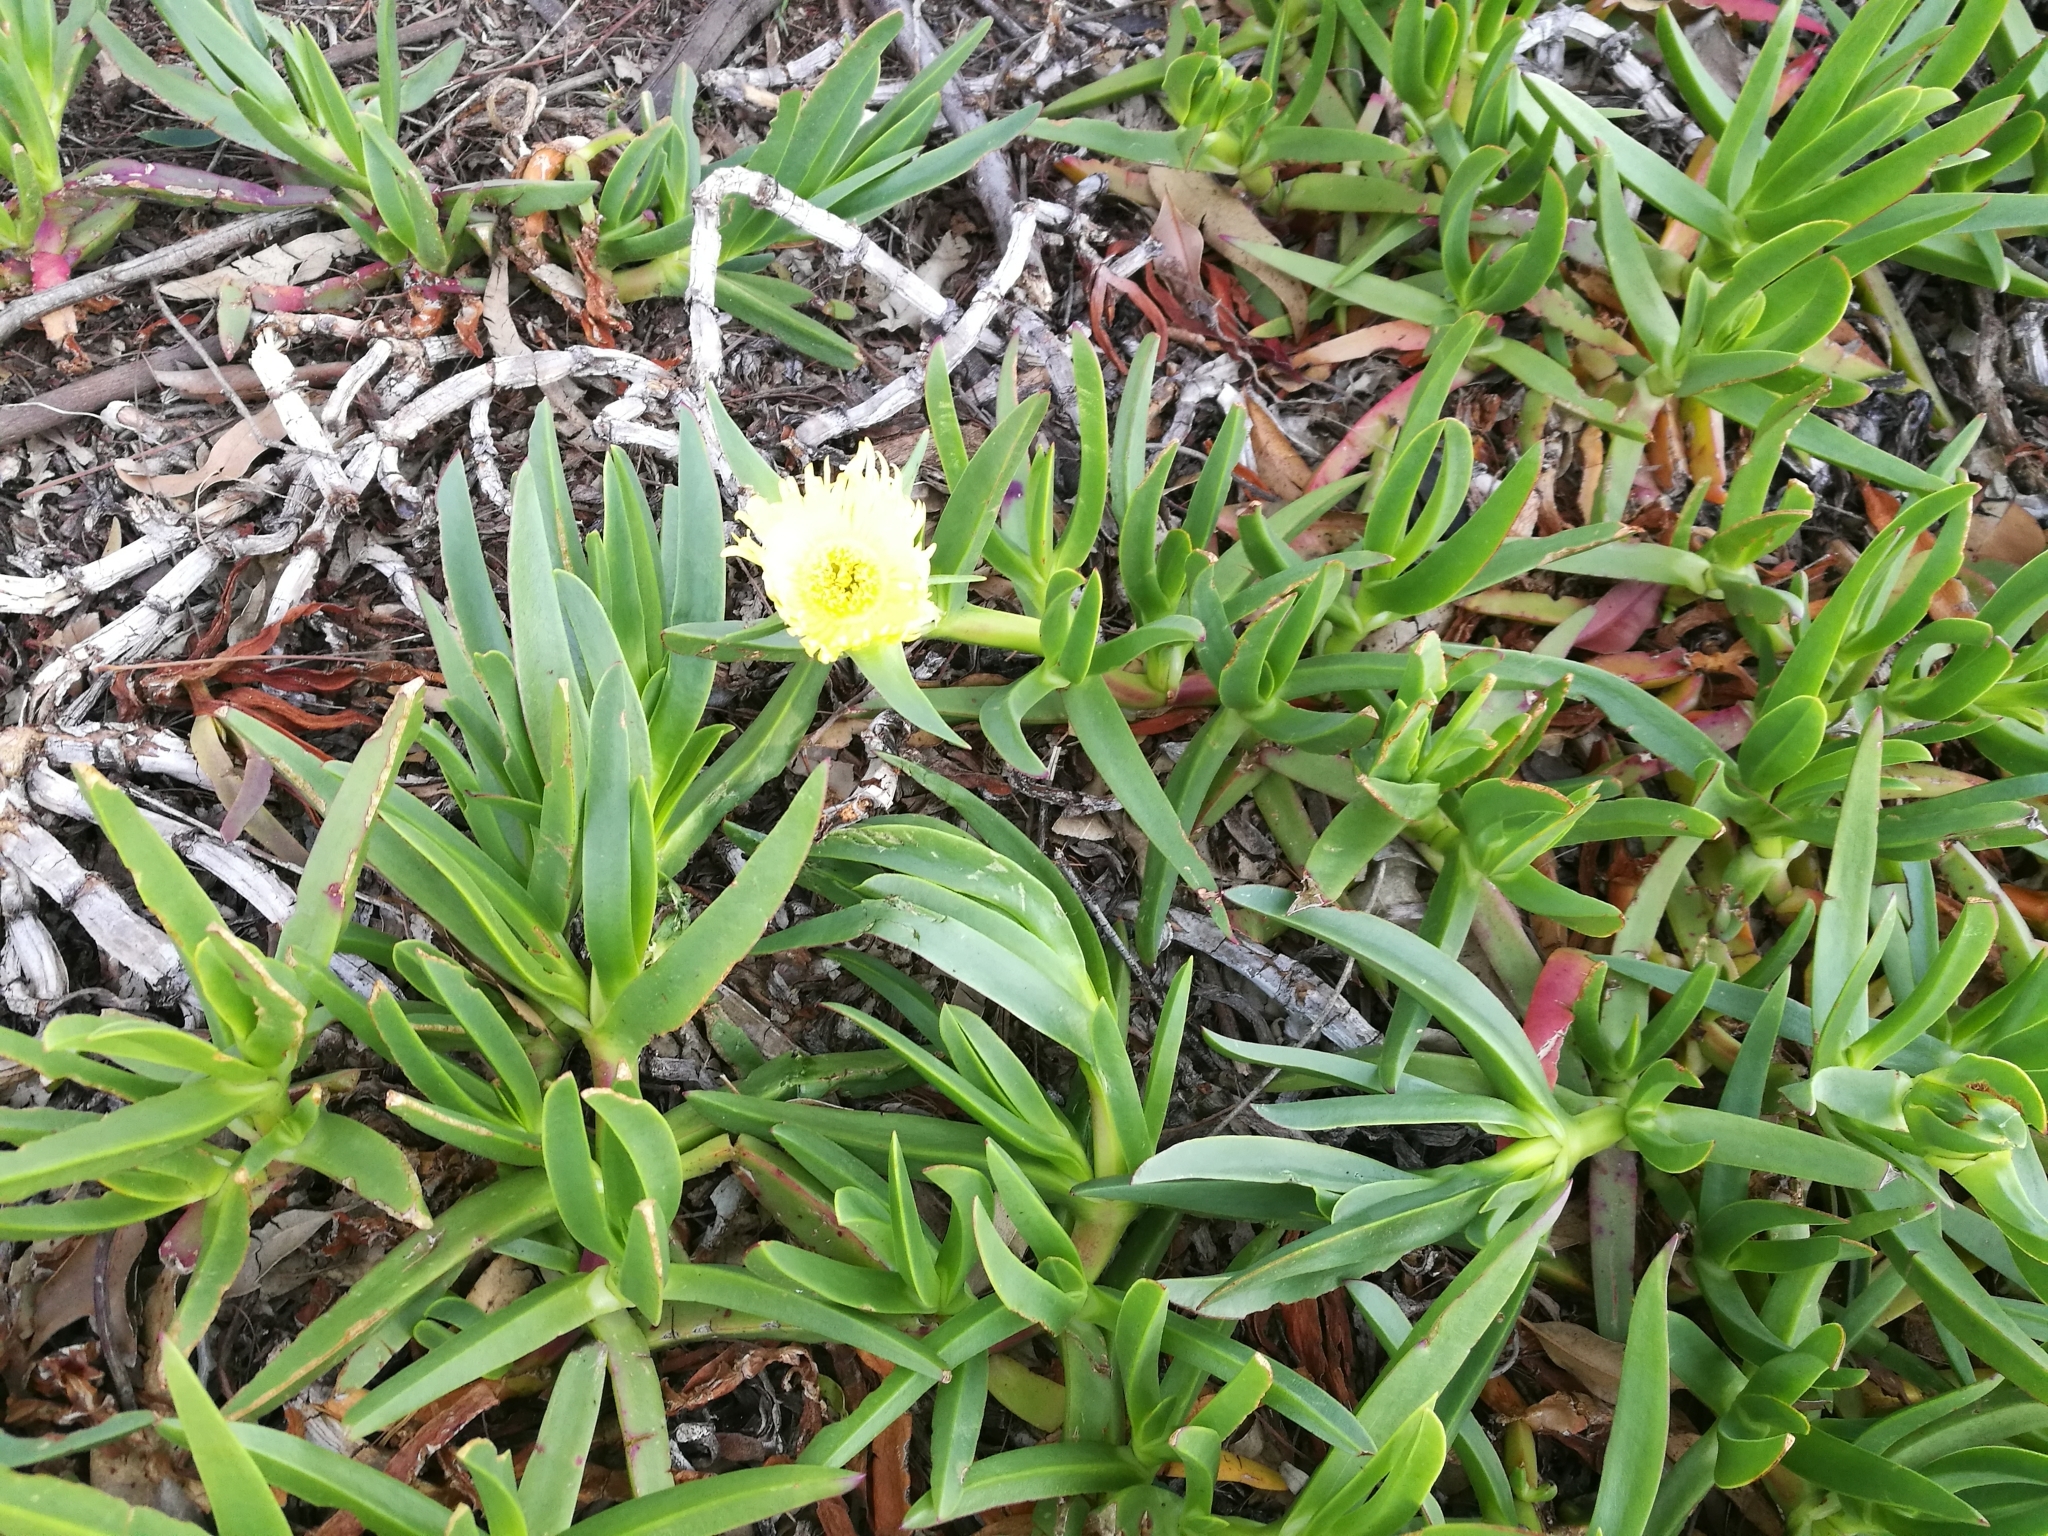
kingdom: Plantae
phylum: Tracheophyta
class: Magnoliopsida
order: Caryophyllales
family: Aizoaceae
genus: Carpobrotus
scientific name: Carpobrotus edulis
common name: Hottentot-fig
